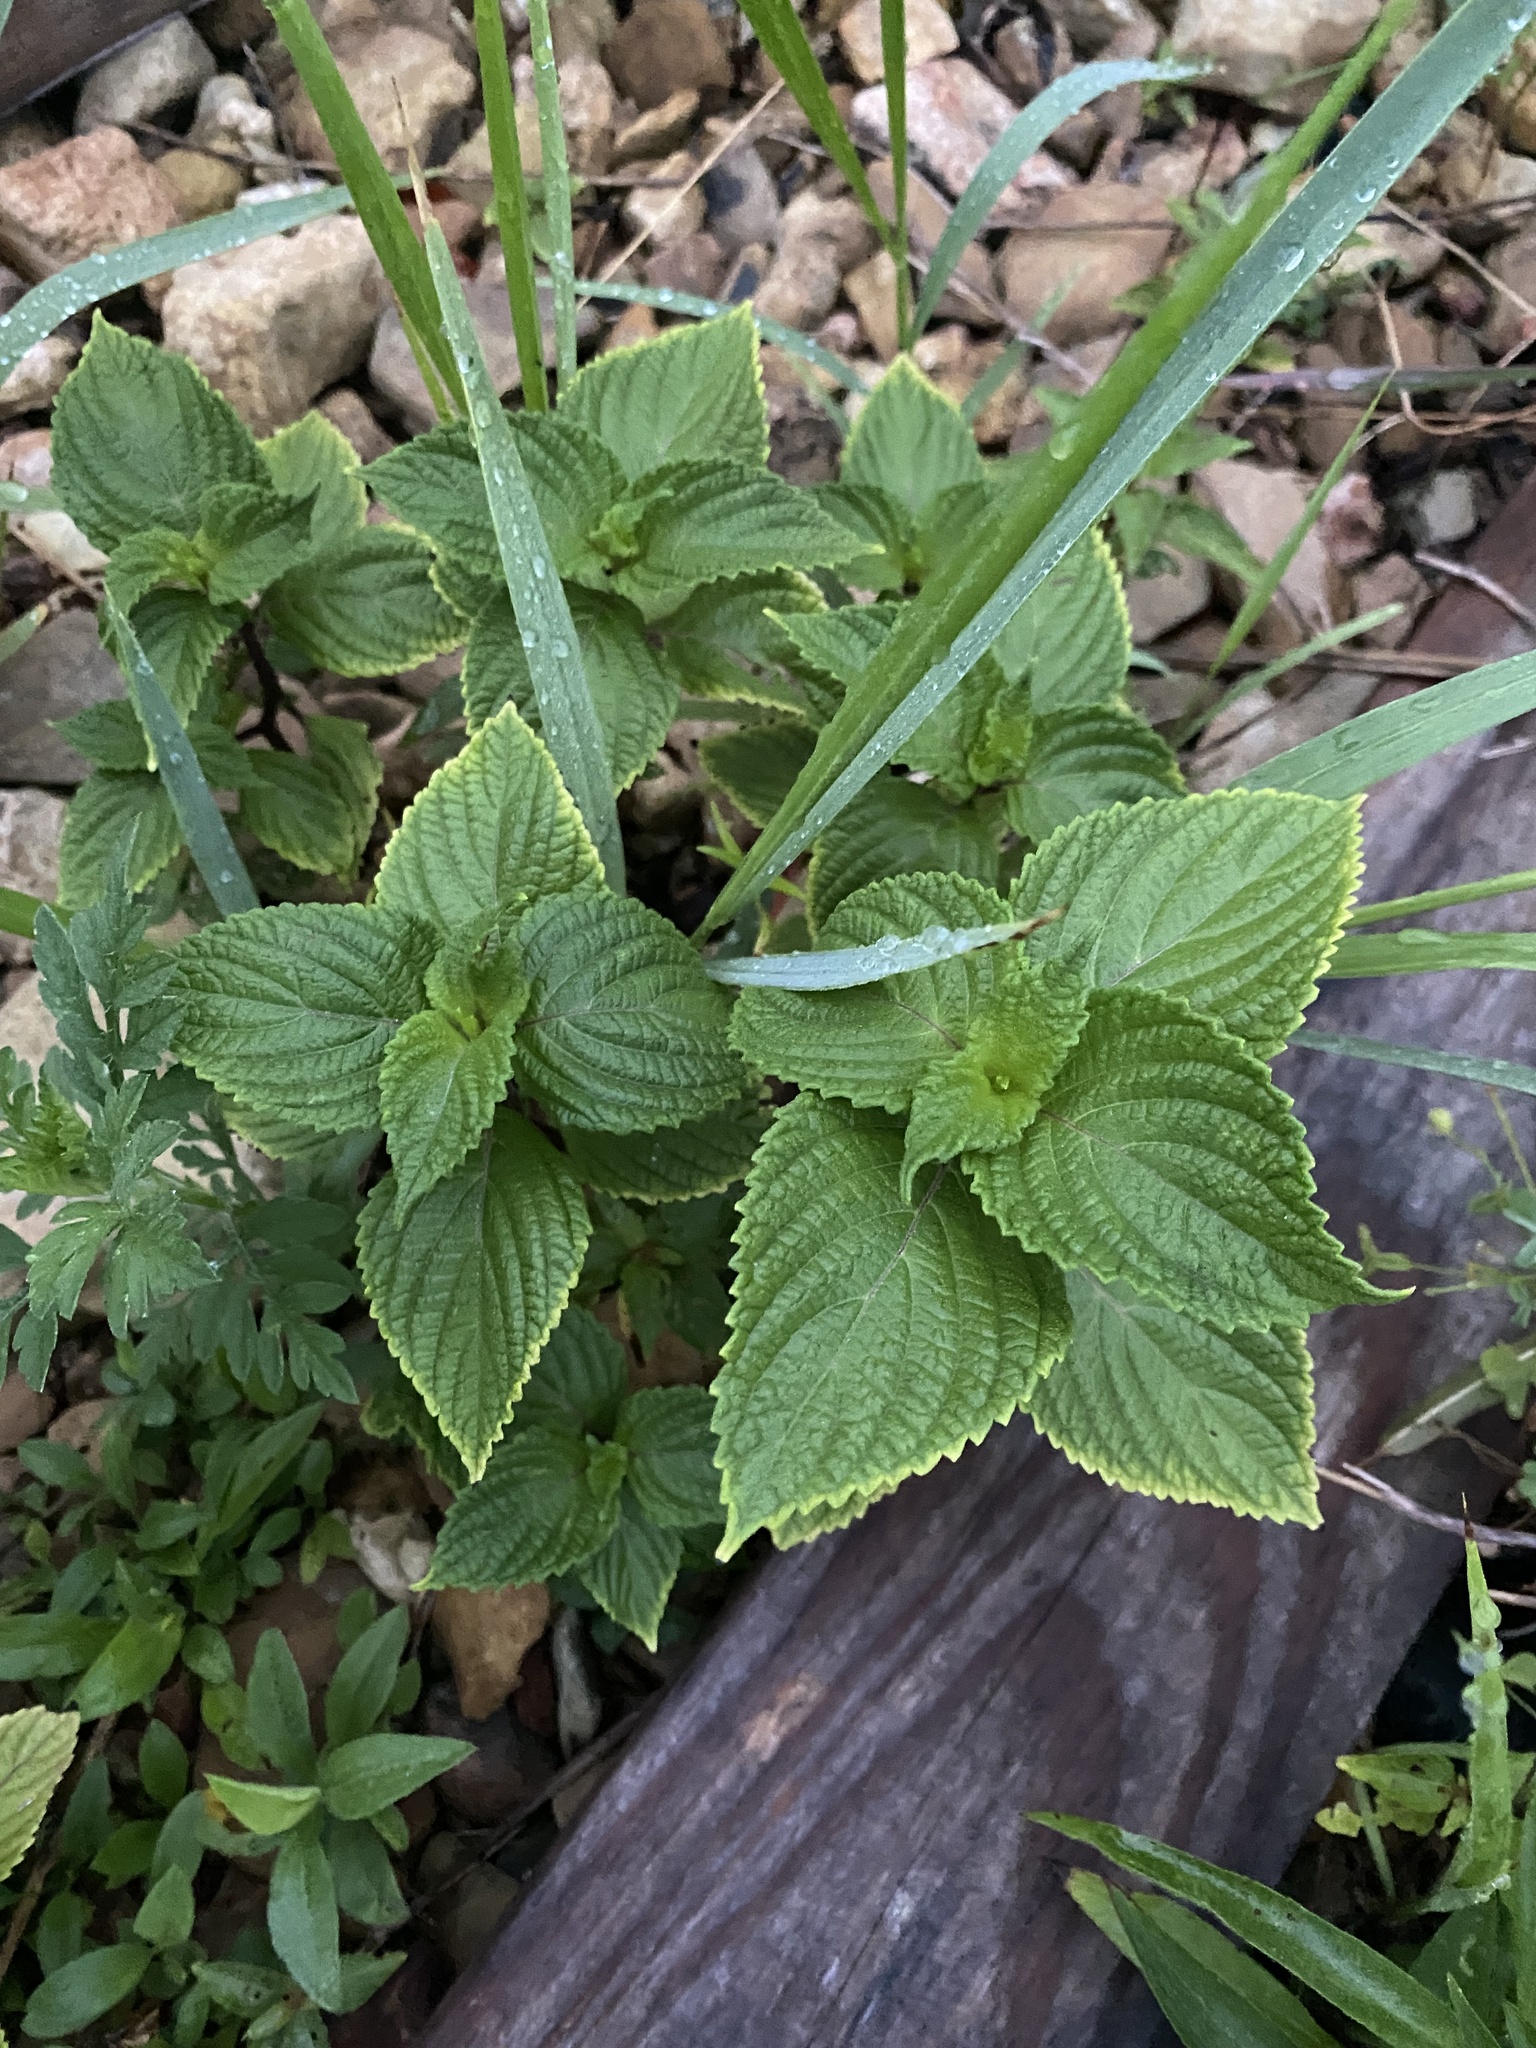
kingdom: Plantae
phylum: Tracheophyta
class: Magnoliopsida
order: Lamiales
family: Lamiaceae
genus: Perilla
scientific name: Perilla frutescens
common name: Perilla
